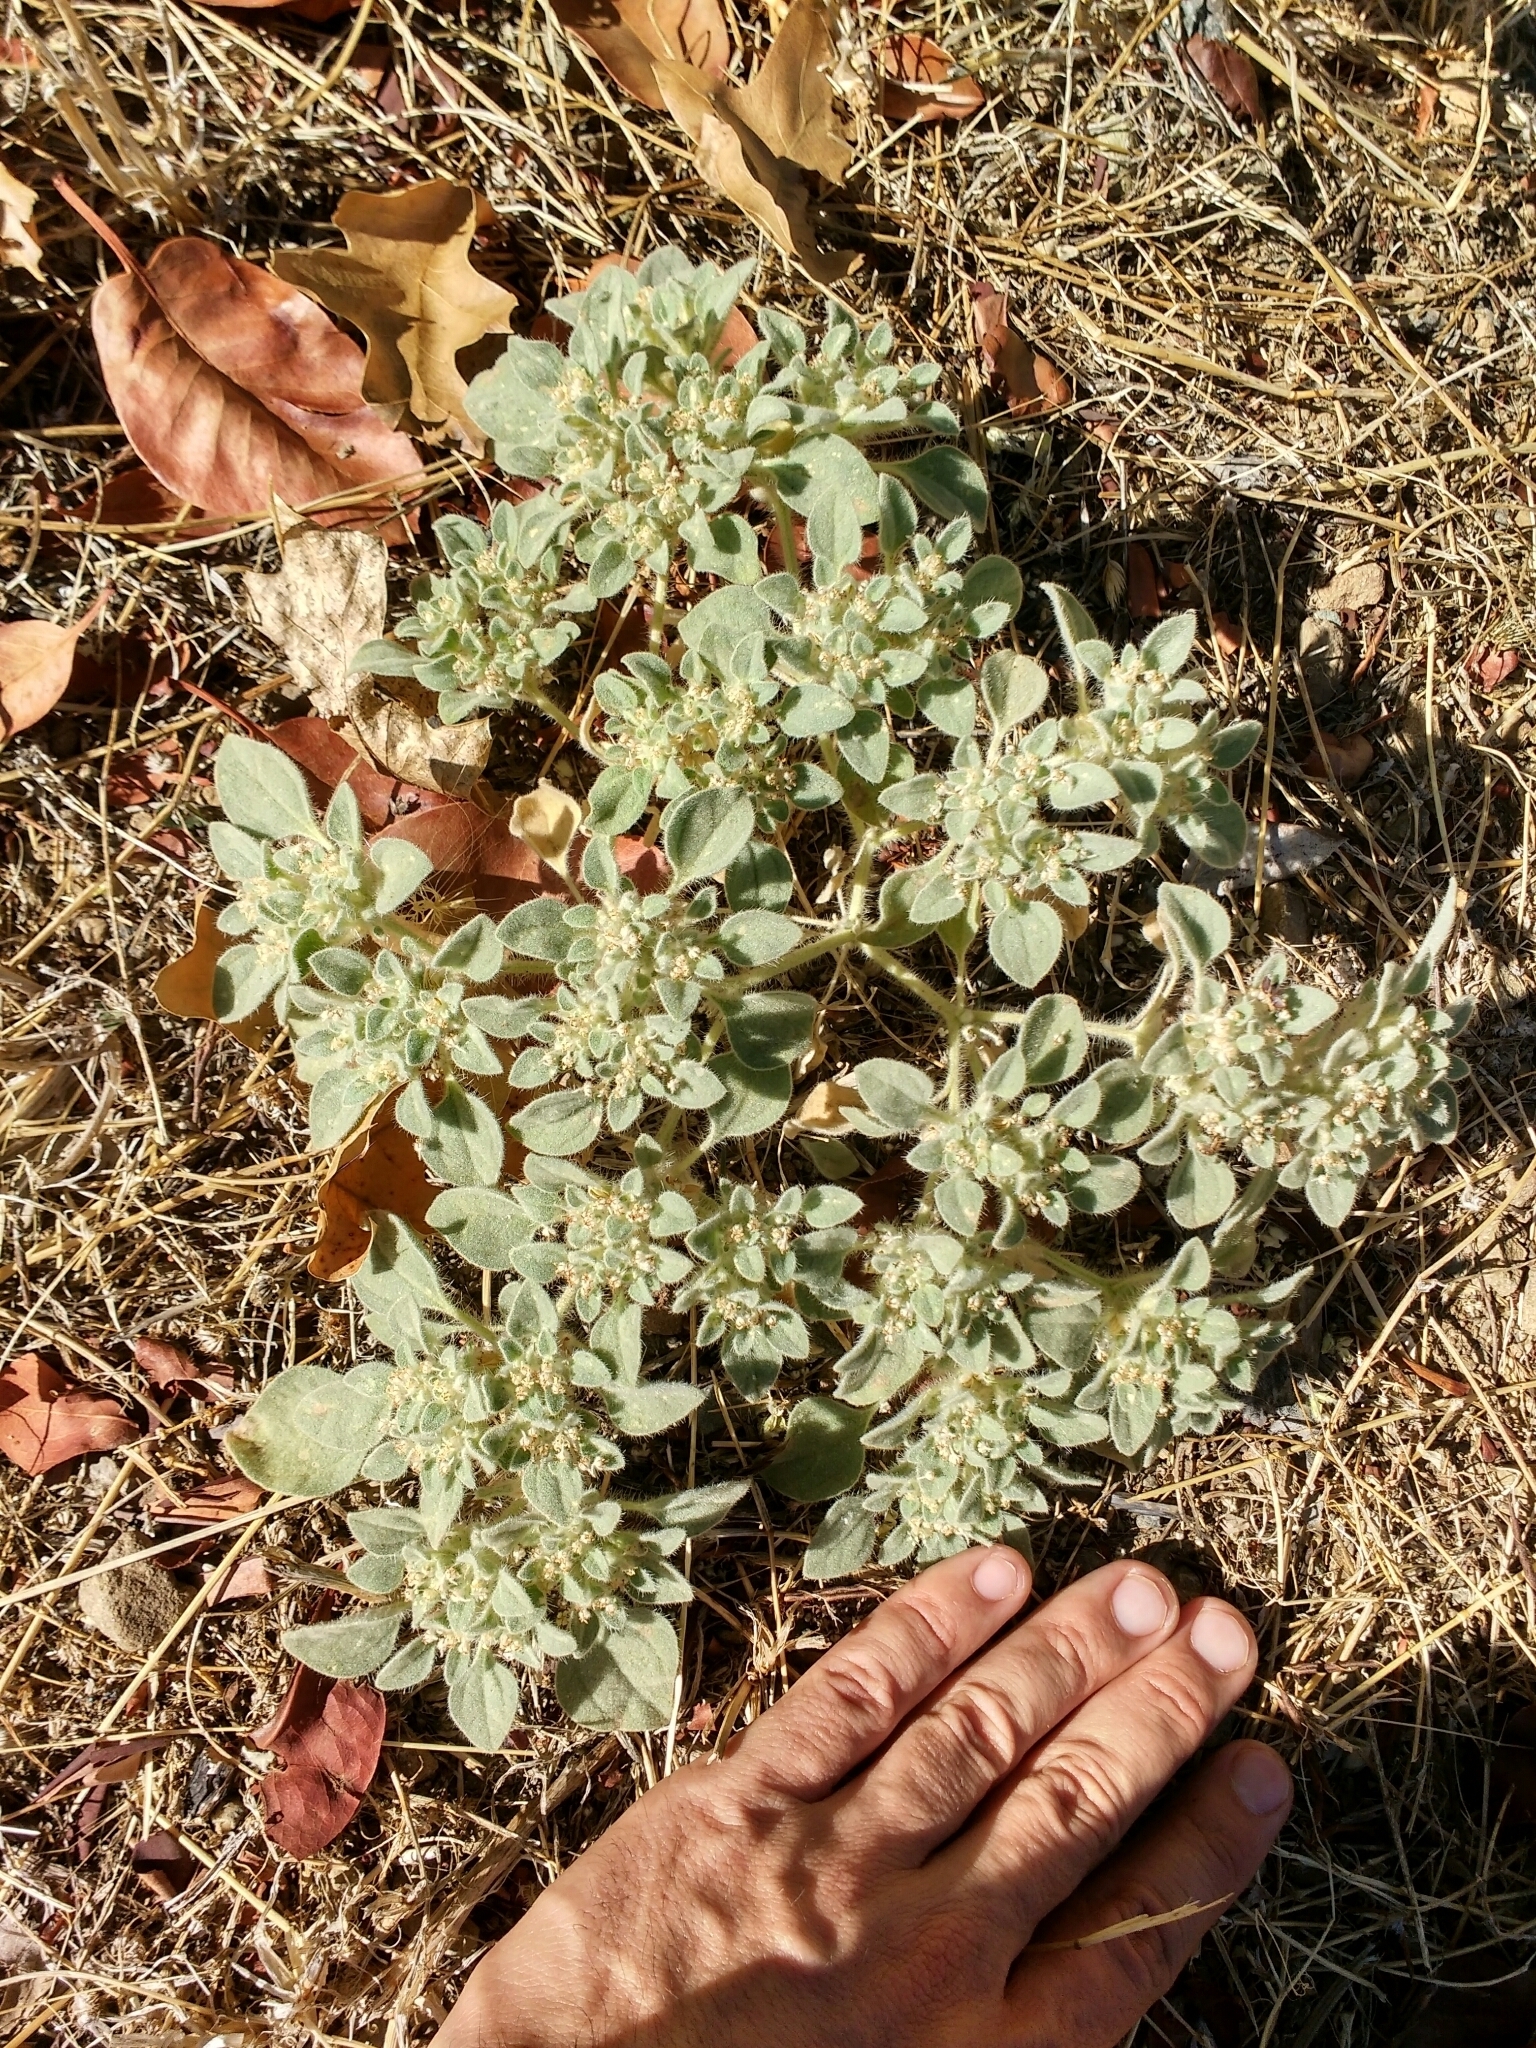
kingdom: Plantae
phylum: Tracheophyta
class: Magnoliopsida
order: Malpighiales
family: Euphorbiaceae
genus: Croton
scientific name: Croton setiger
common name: Dove weed
